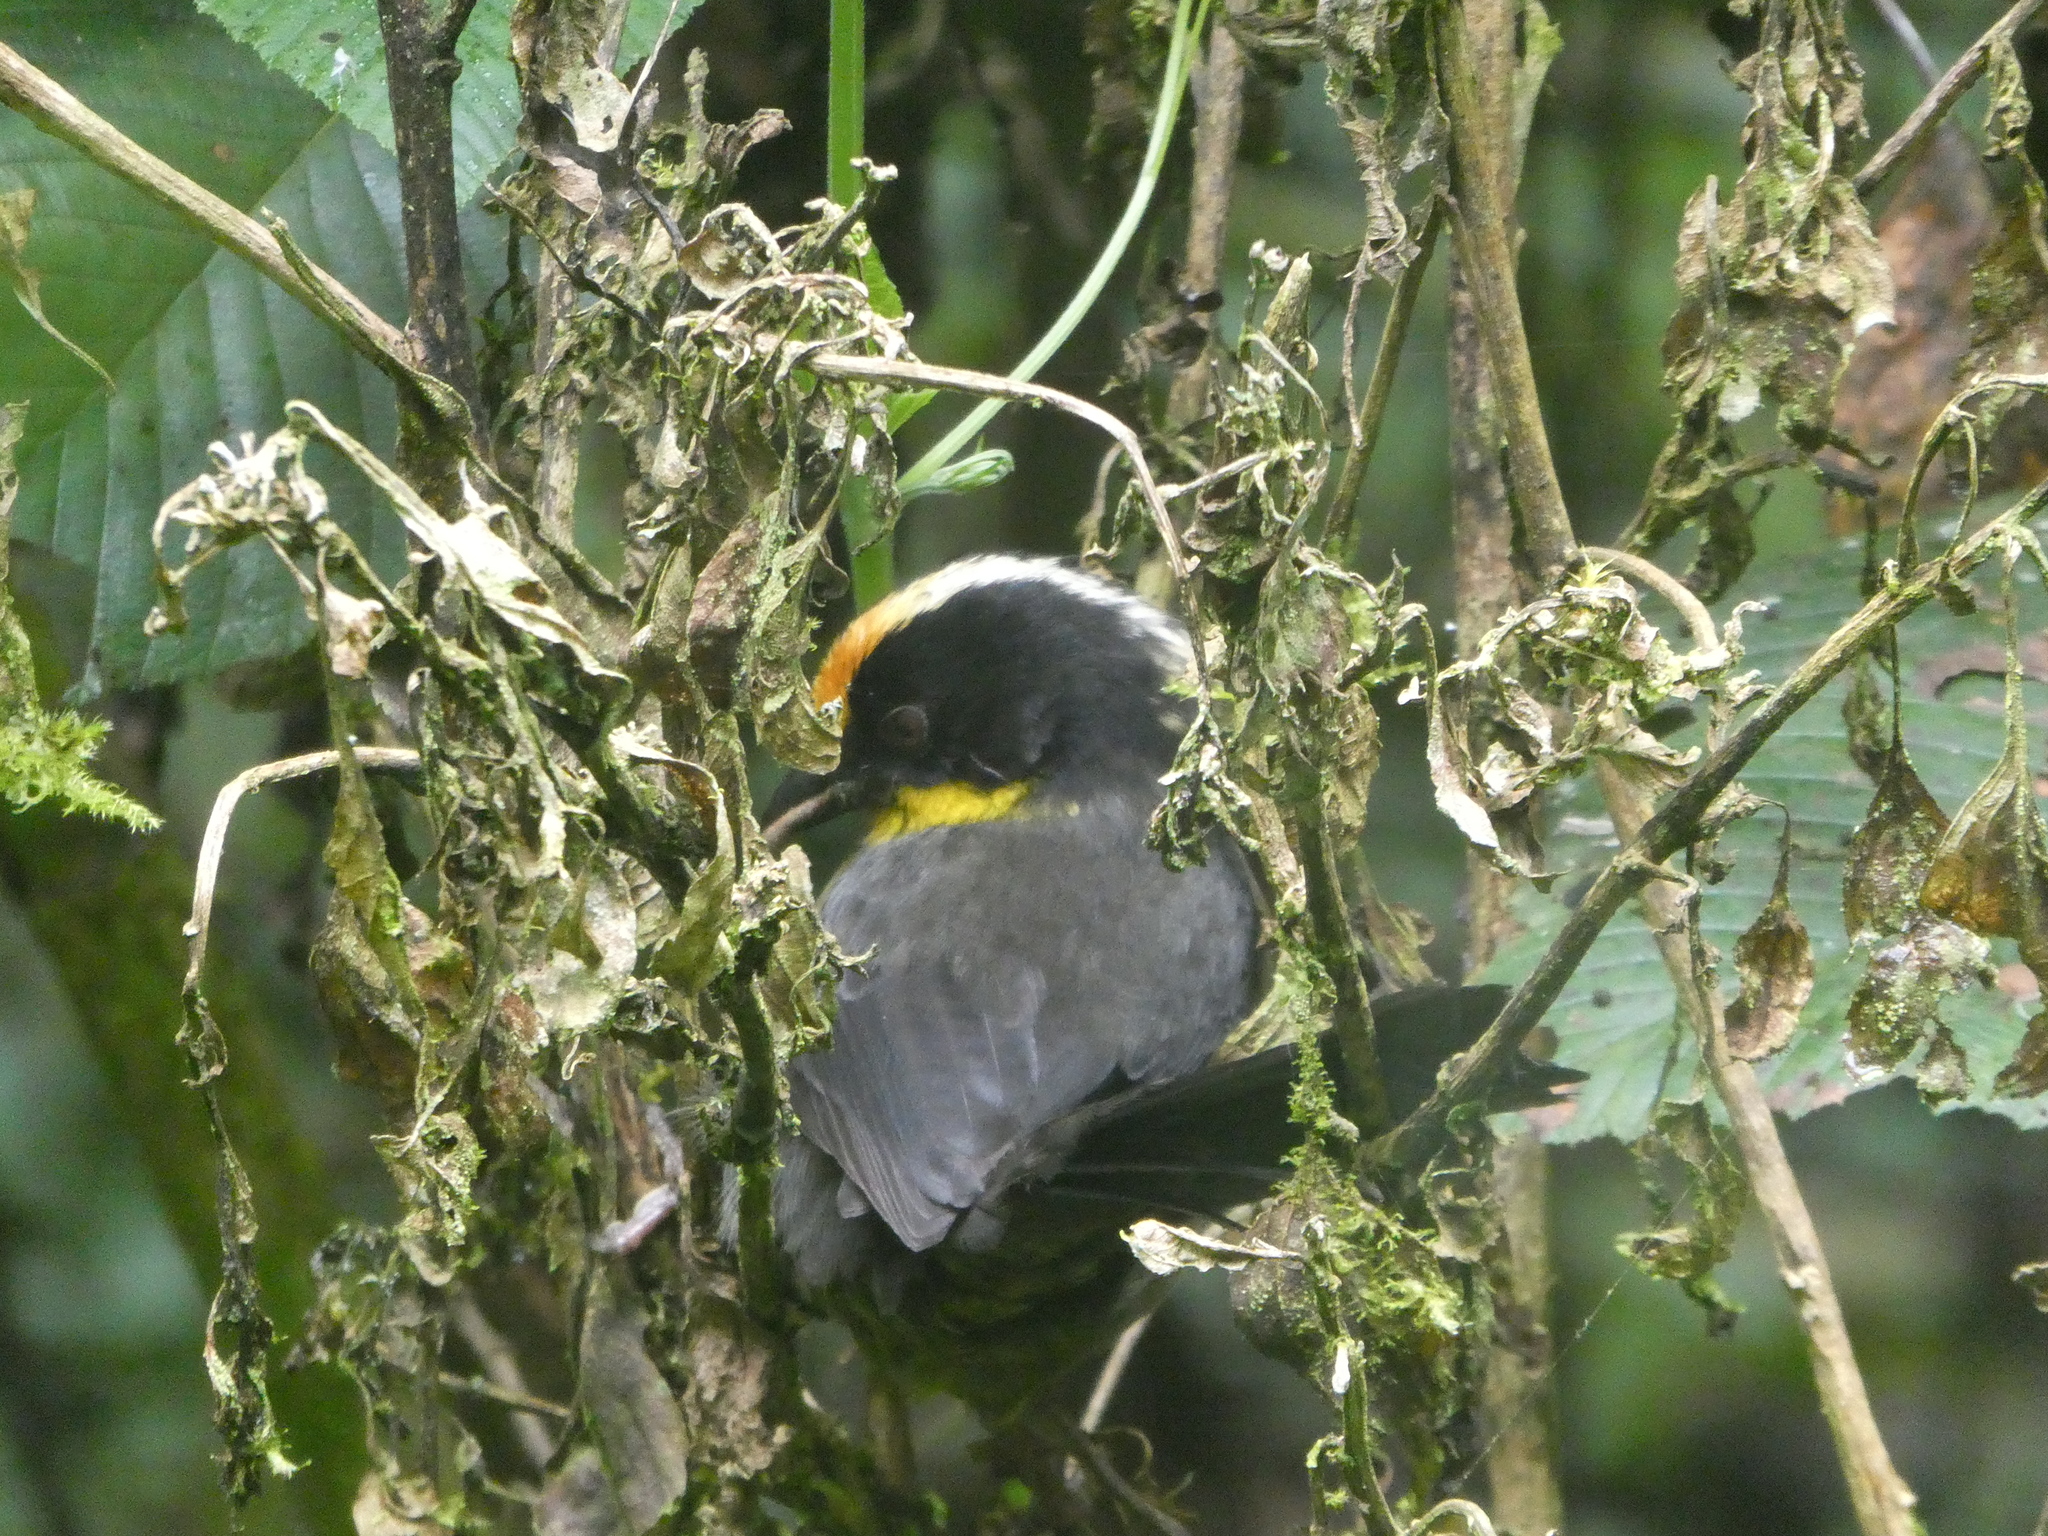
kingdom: Animalia
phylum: Chordata
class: Aves
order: Passeriformes
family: Passerellidae
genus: Atlapetes
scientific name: Atlapetes pallidinucha
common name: Pale-naped brushfinch
